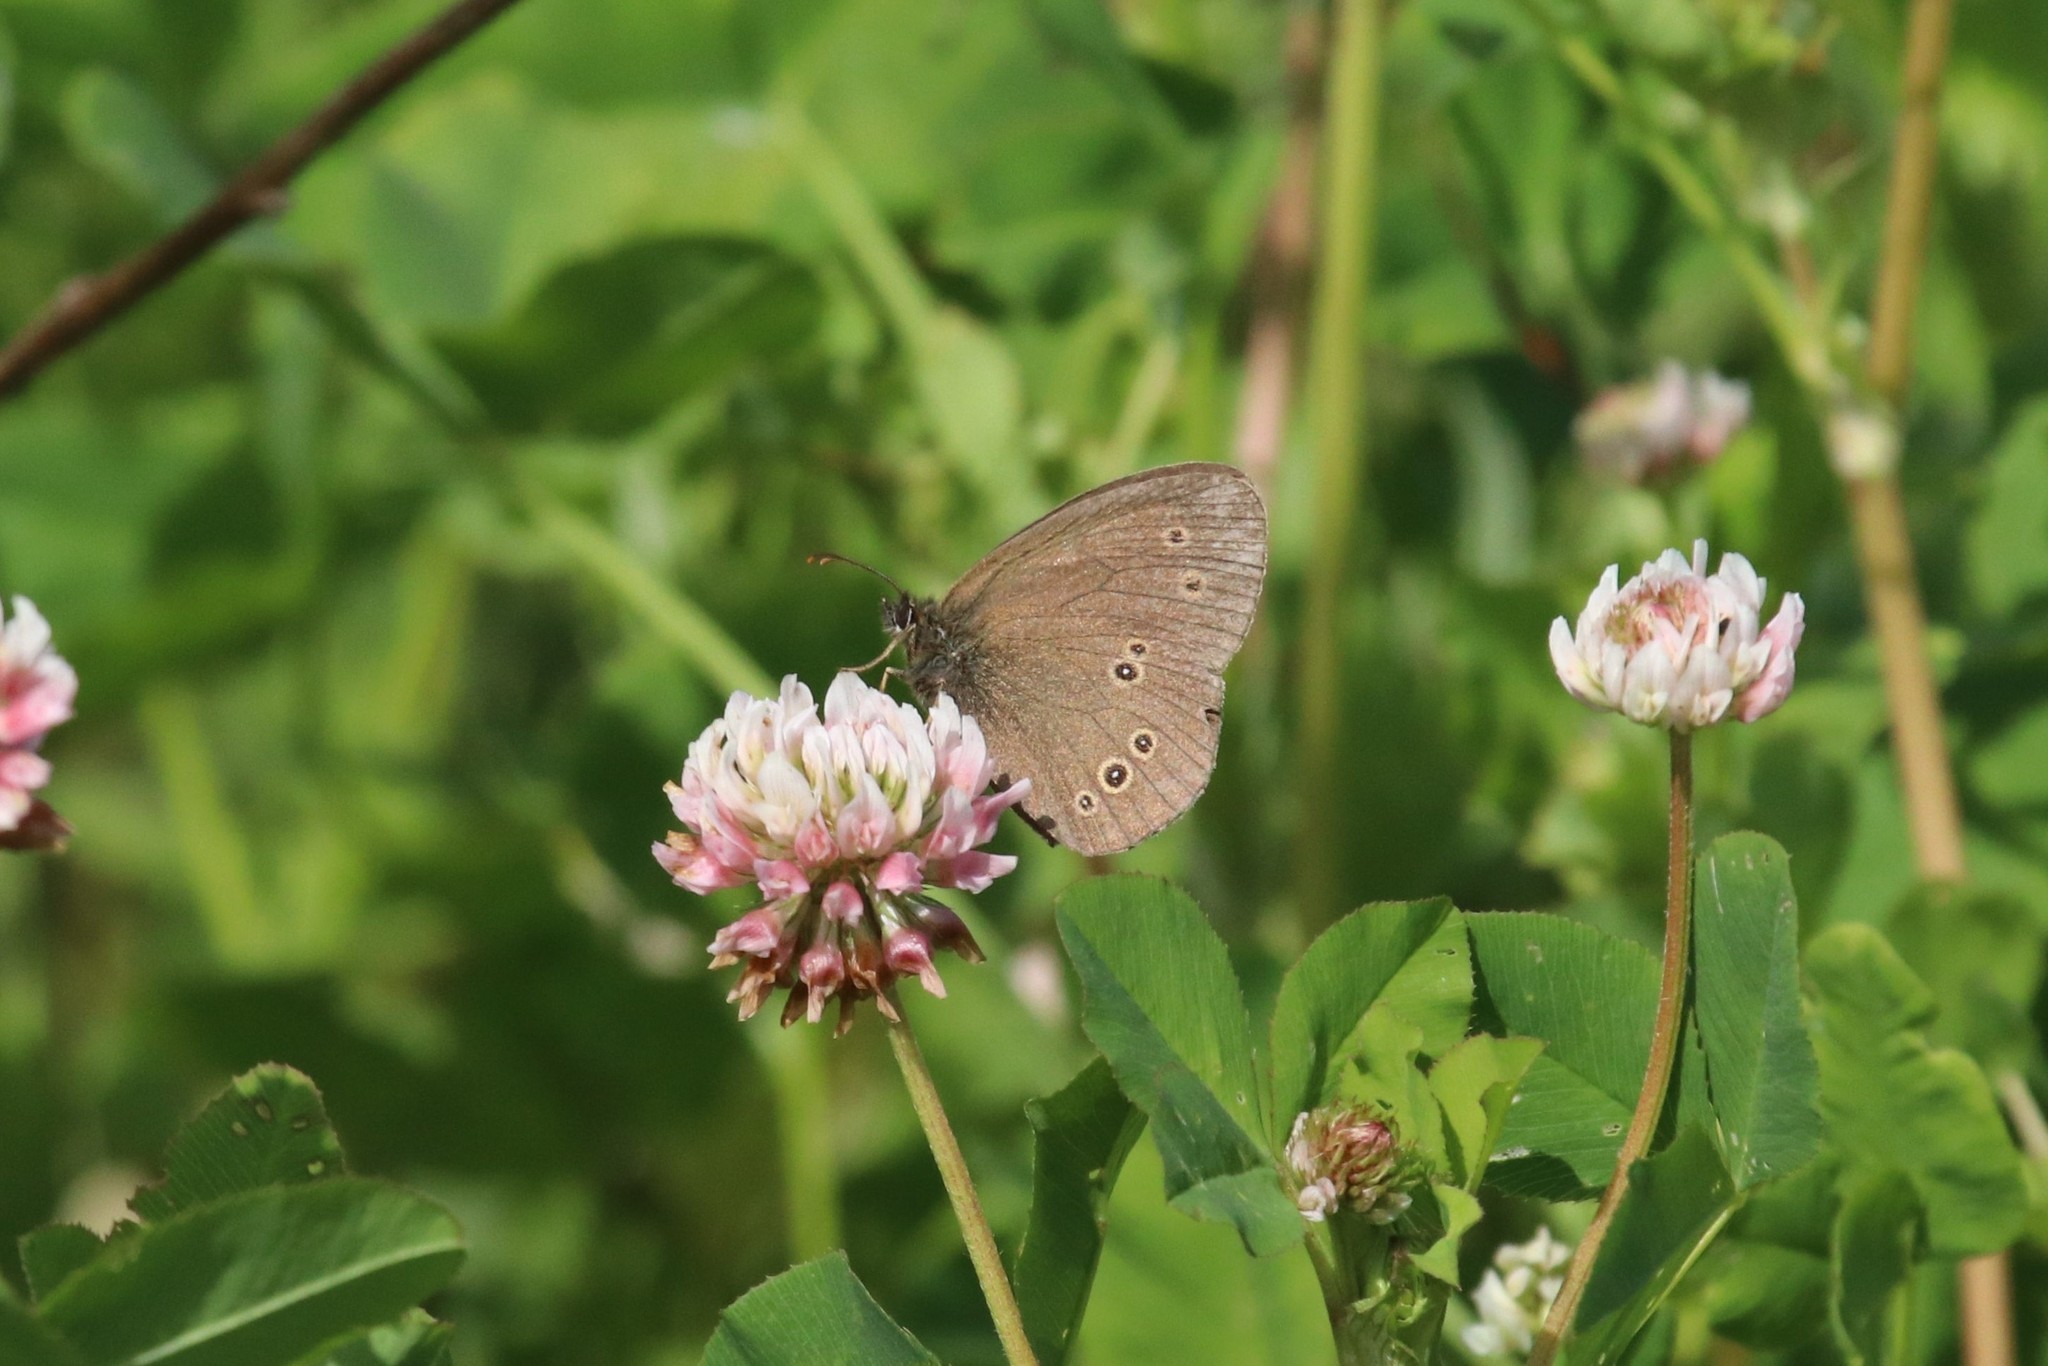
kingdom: Animalia
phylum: Arthropoda
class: Insecta
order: Lepidoptera
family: Nymphalidae
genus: Aphantopus
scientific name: Aphantopus hyperantus
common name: Ringlet
